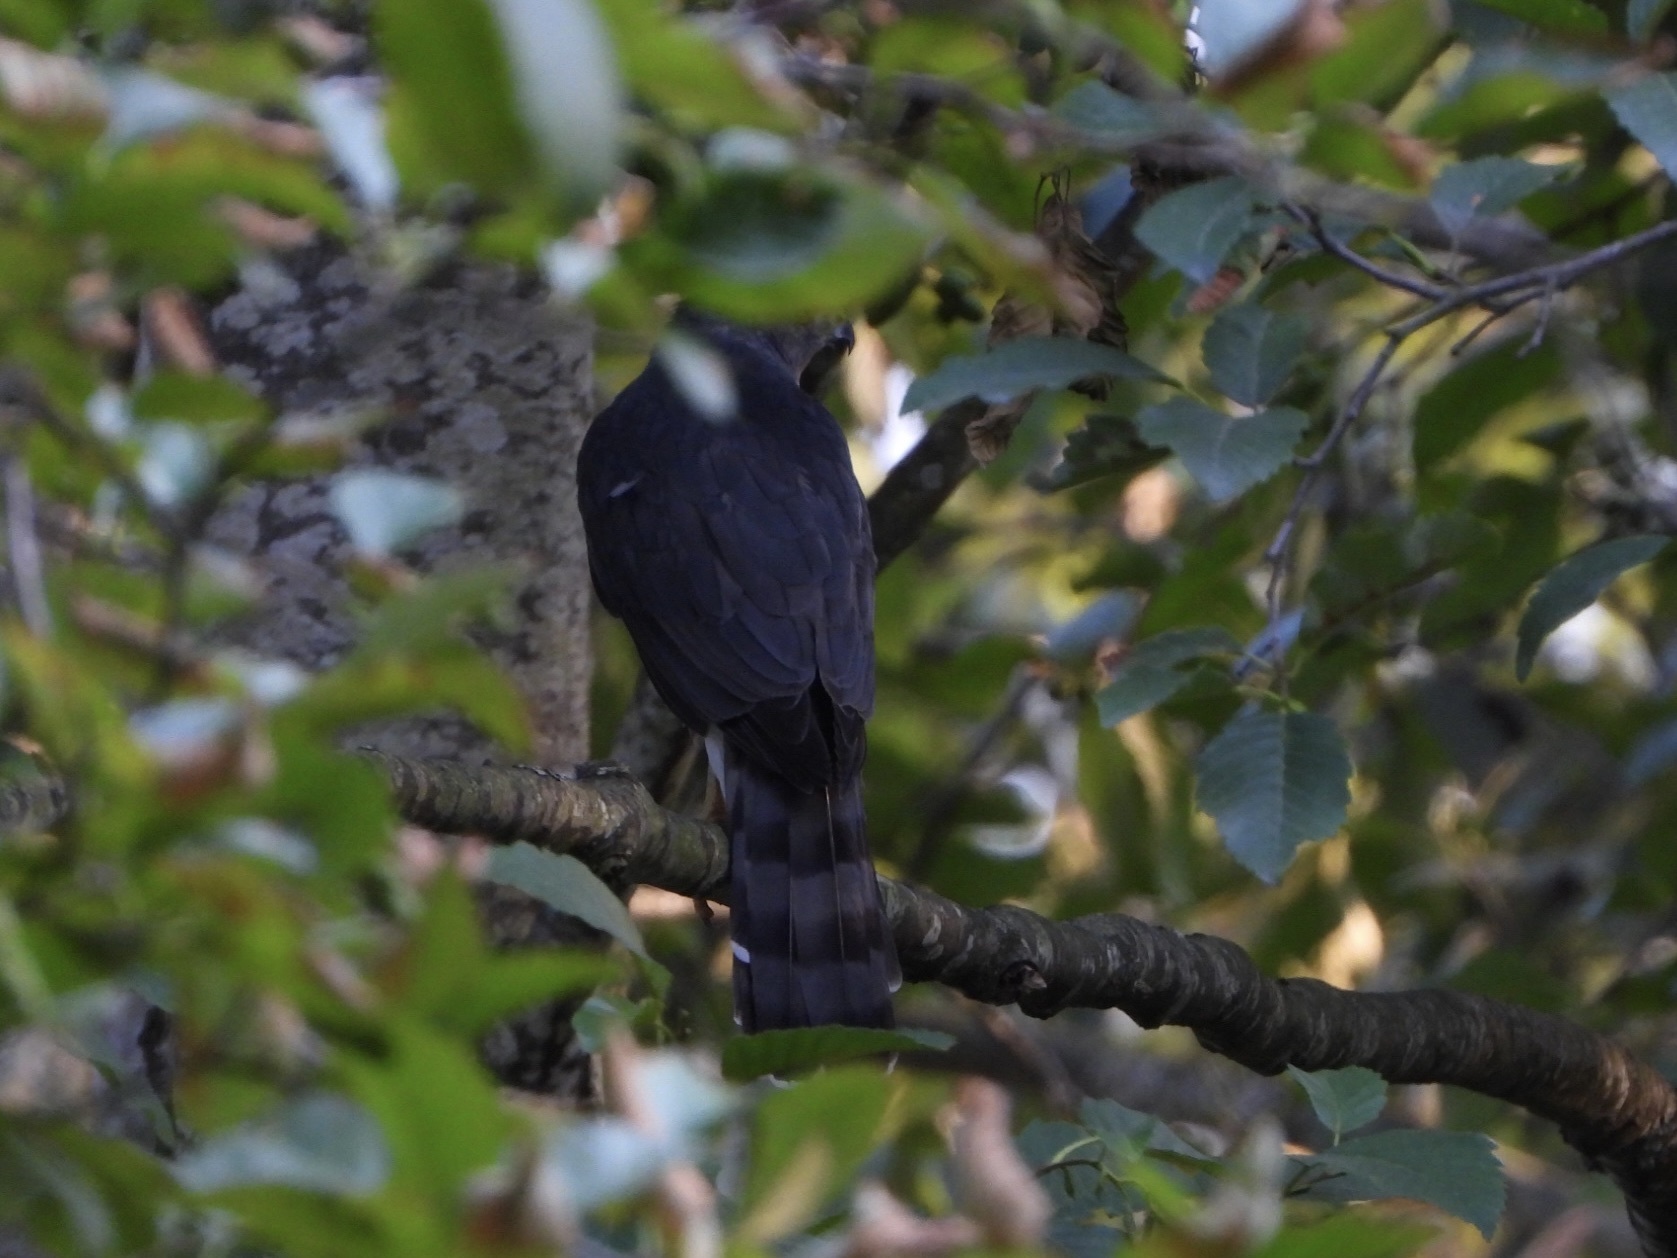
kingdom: Animalia
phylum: Chordata
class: Aves
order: Accipitriformes
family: Accipitridae
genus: Accipiter
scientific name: Accipiter cooperii
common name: Cooper's hawk
